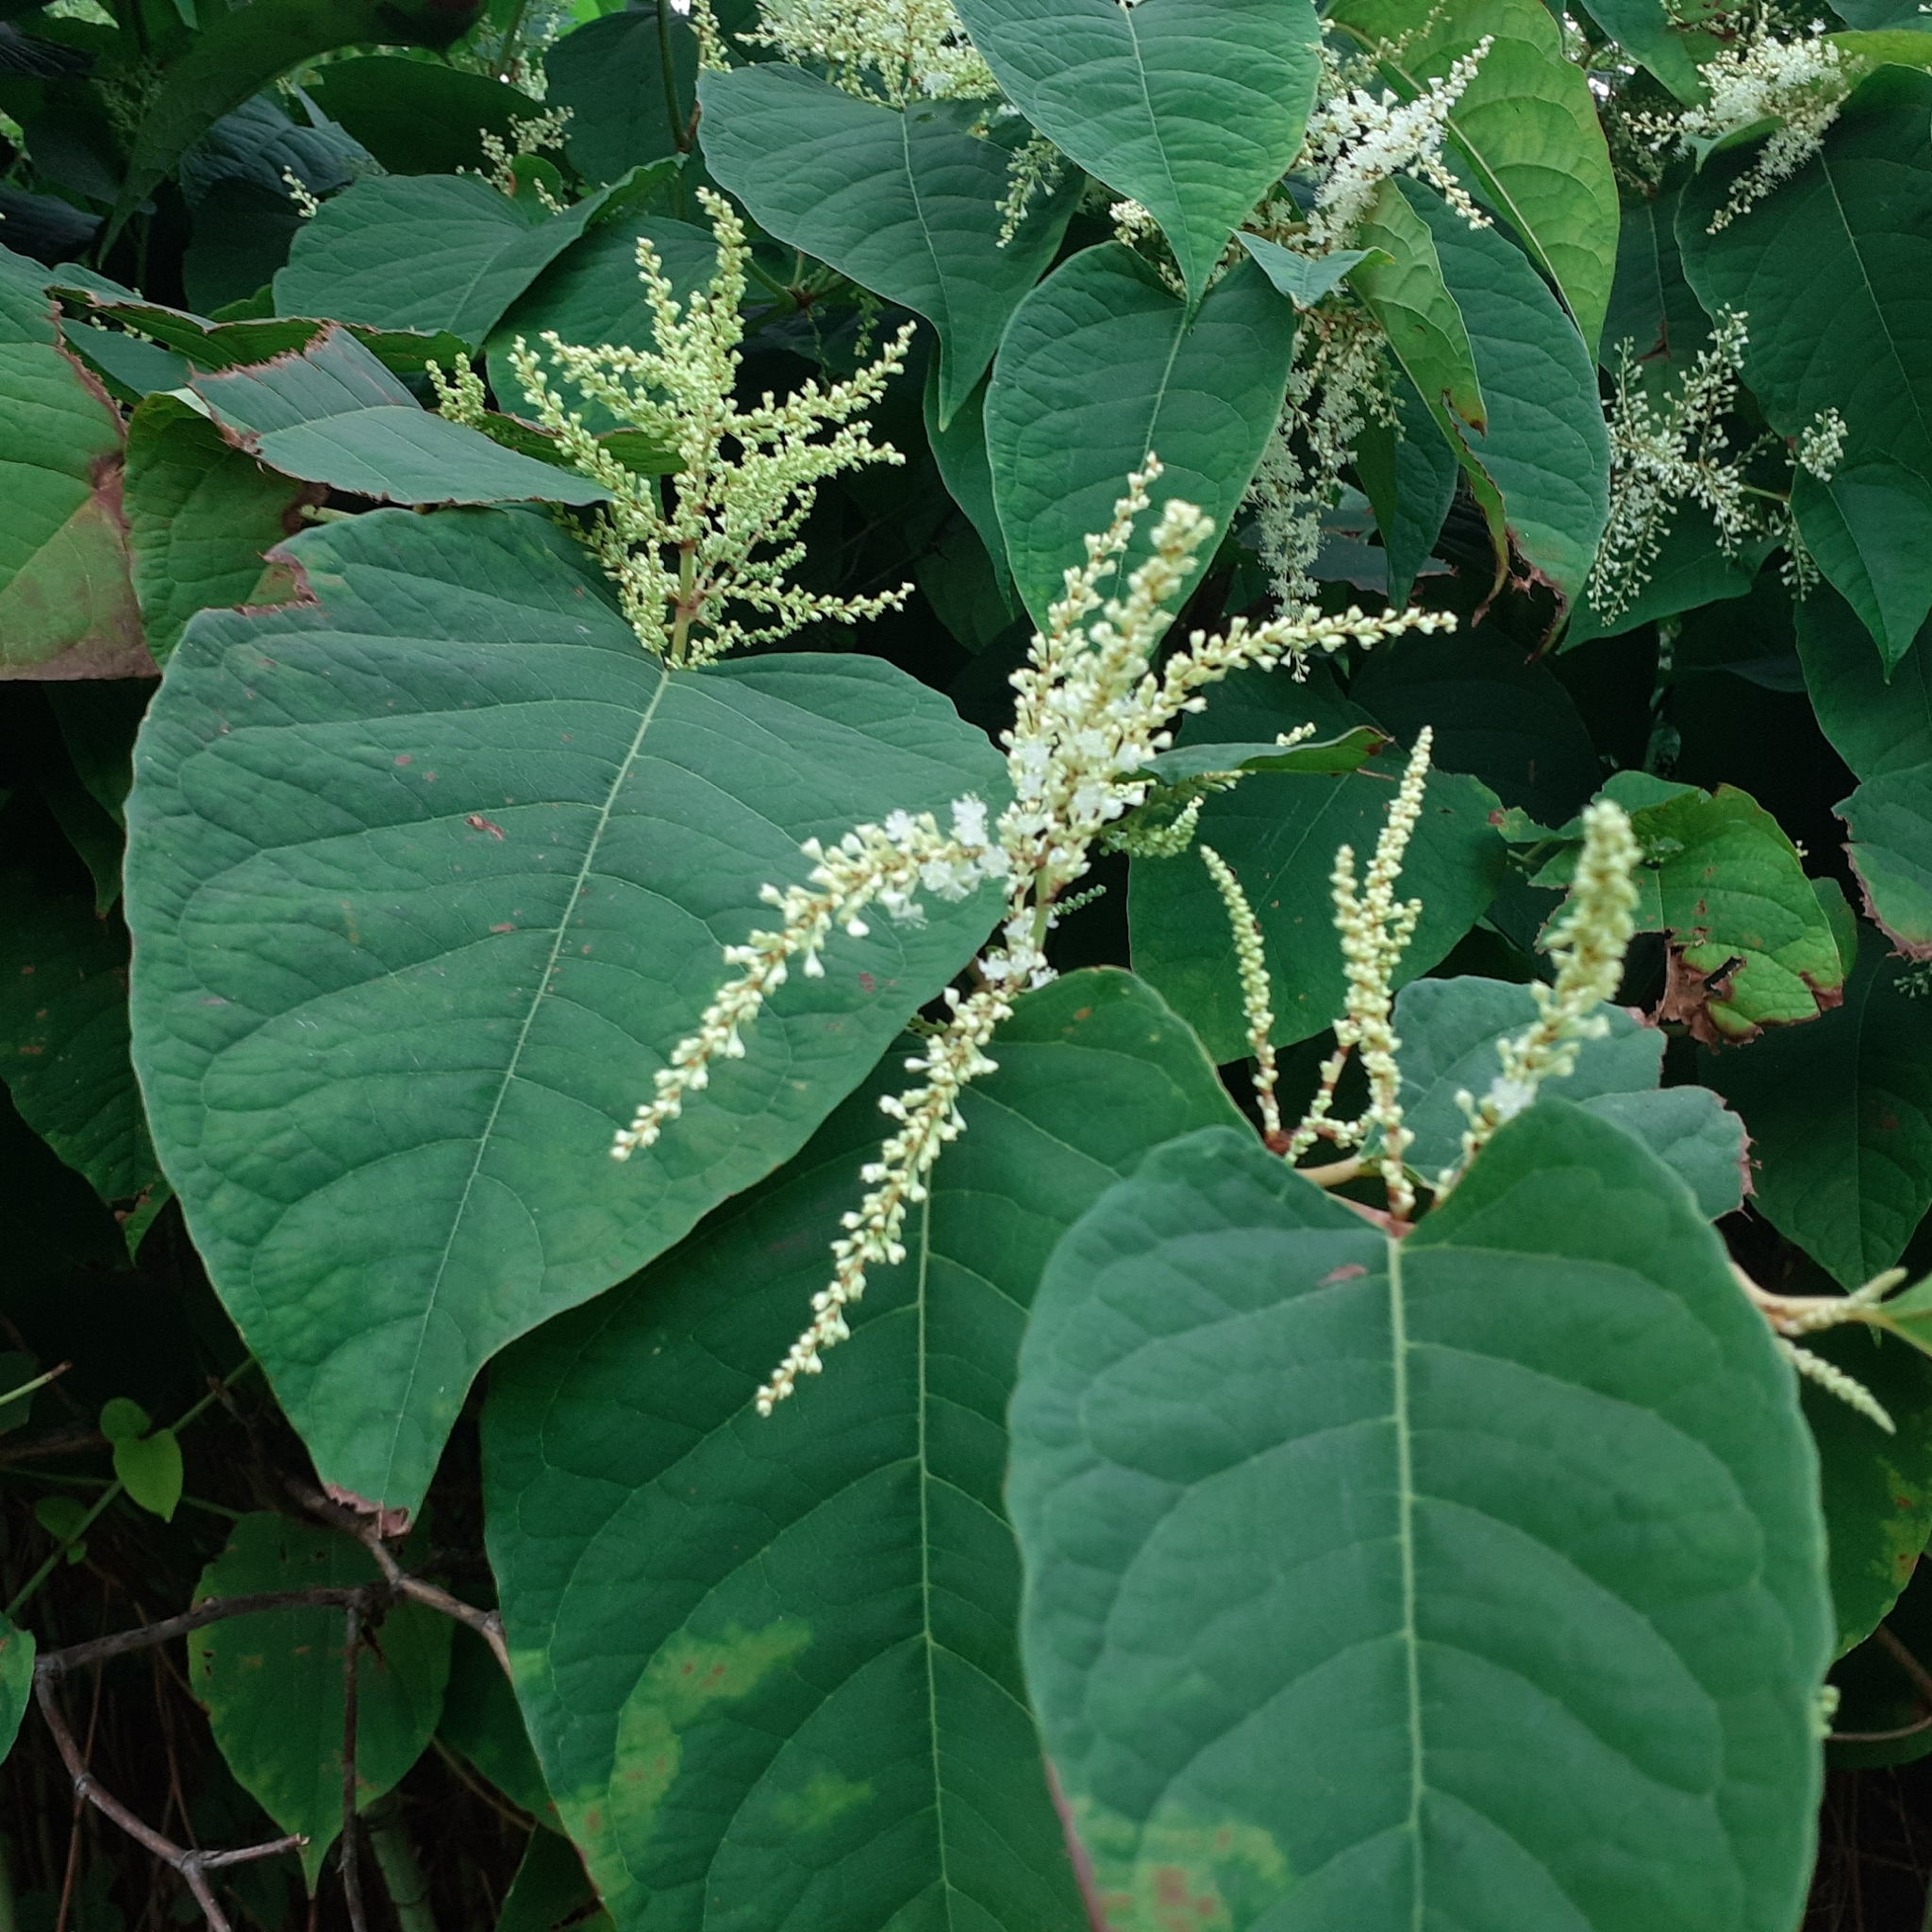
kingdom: Plantae
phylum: Tracheophyta
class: Magnoliopsida
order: Caryophyllales
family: Polygonaceae
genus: Reynoutria
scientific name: Reynoutria japonica
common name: Japanese knotweed
